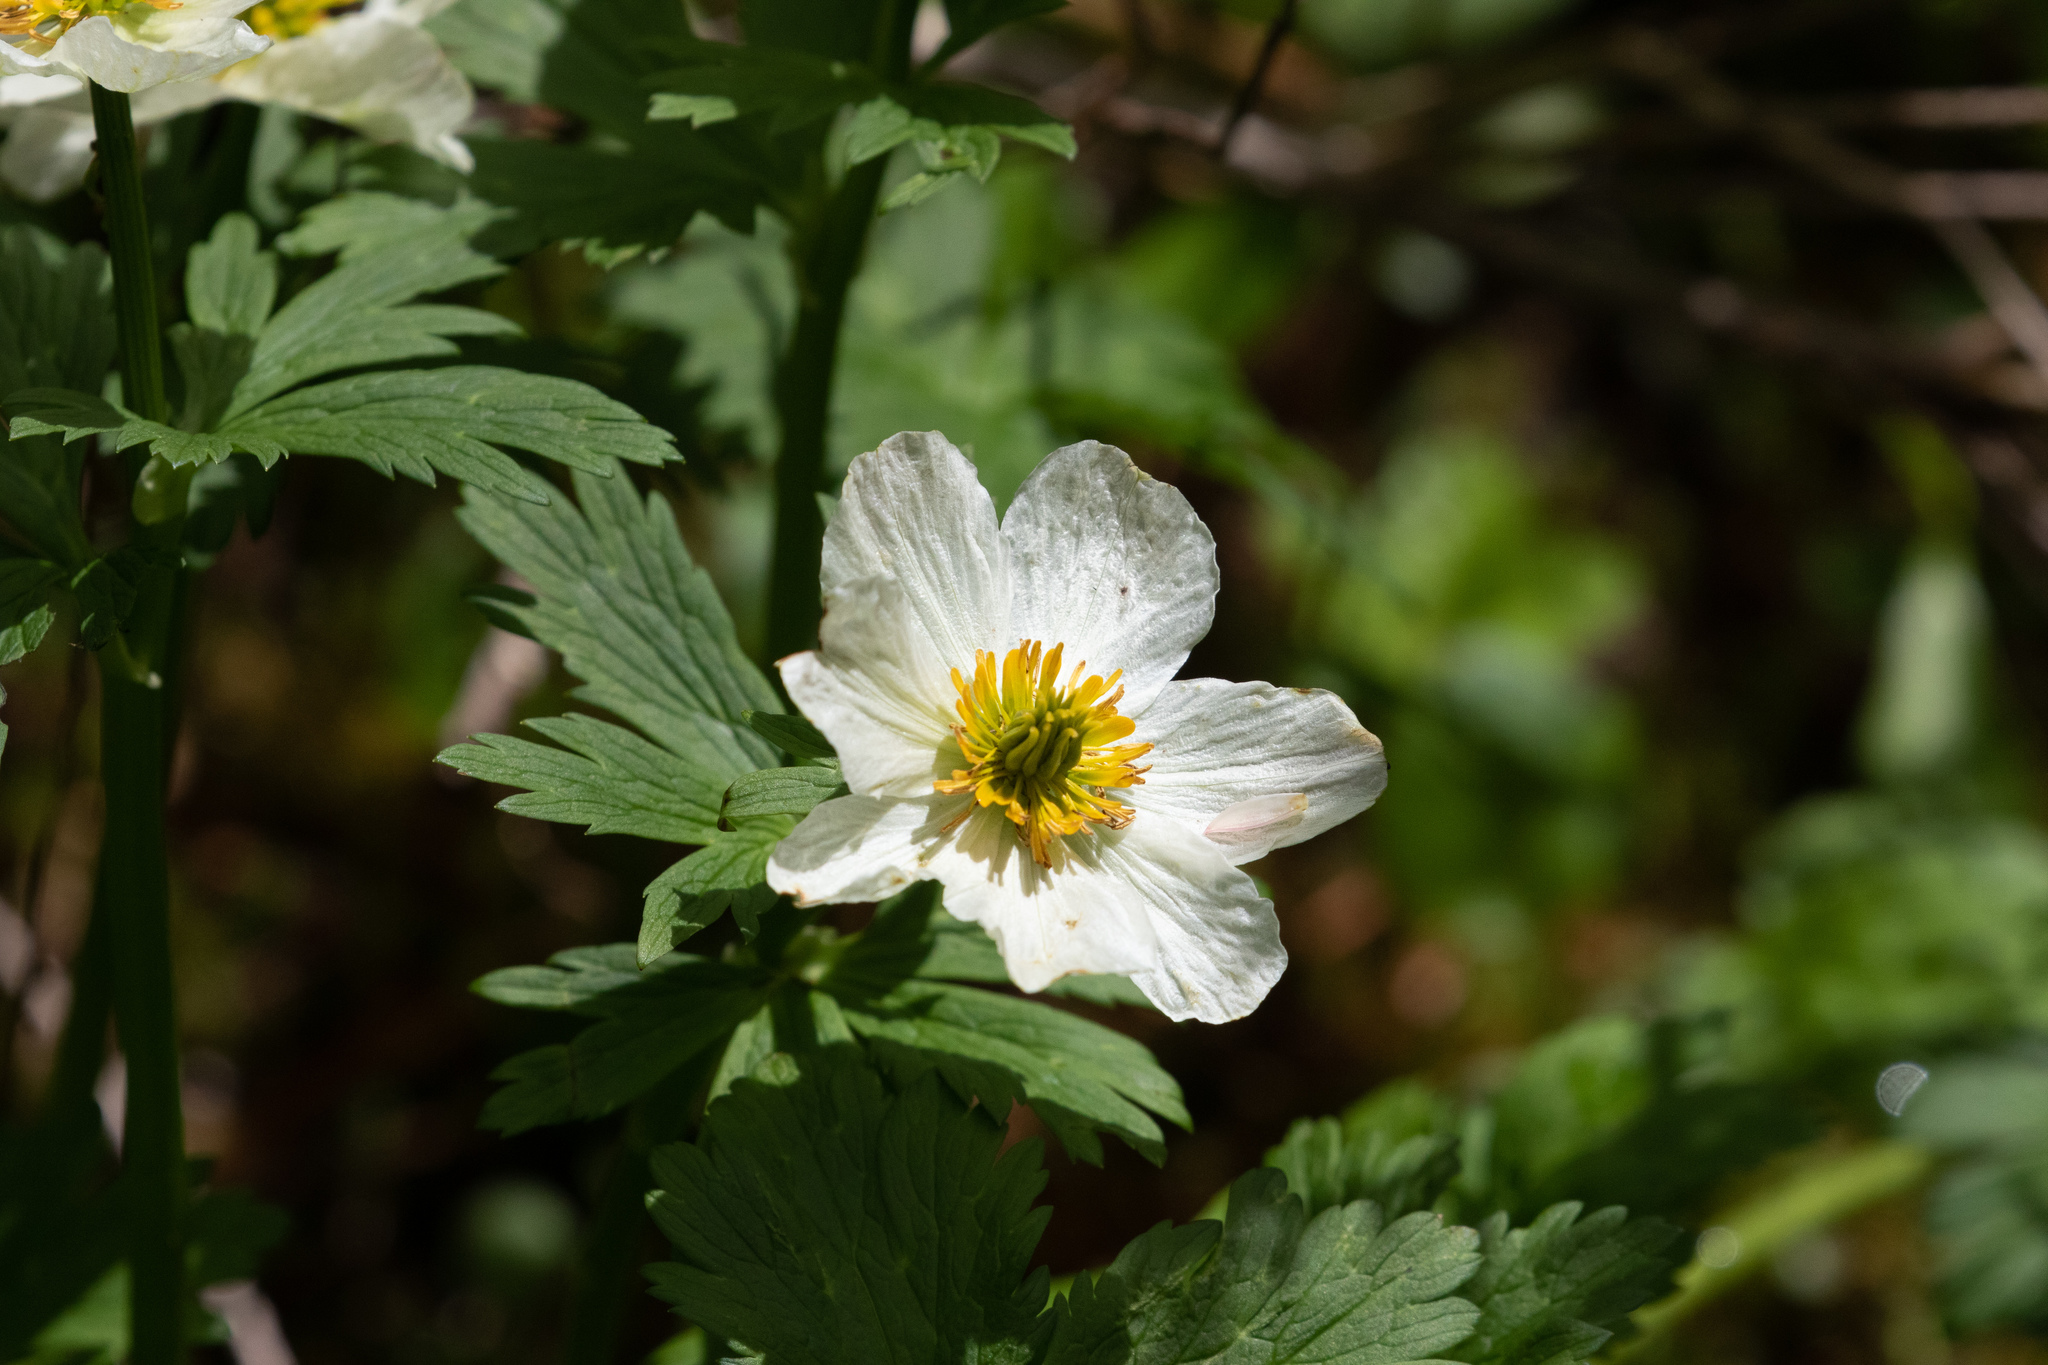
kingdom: Plantae
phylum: Tracheophyta
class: Magnoliopsida
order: Ranunculales
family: Ranunculaceae
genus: Trollius
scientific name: Trollius laxus
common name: American globeflower
